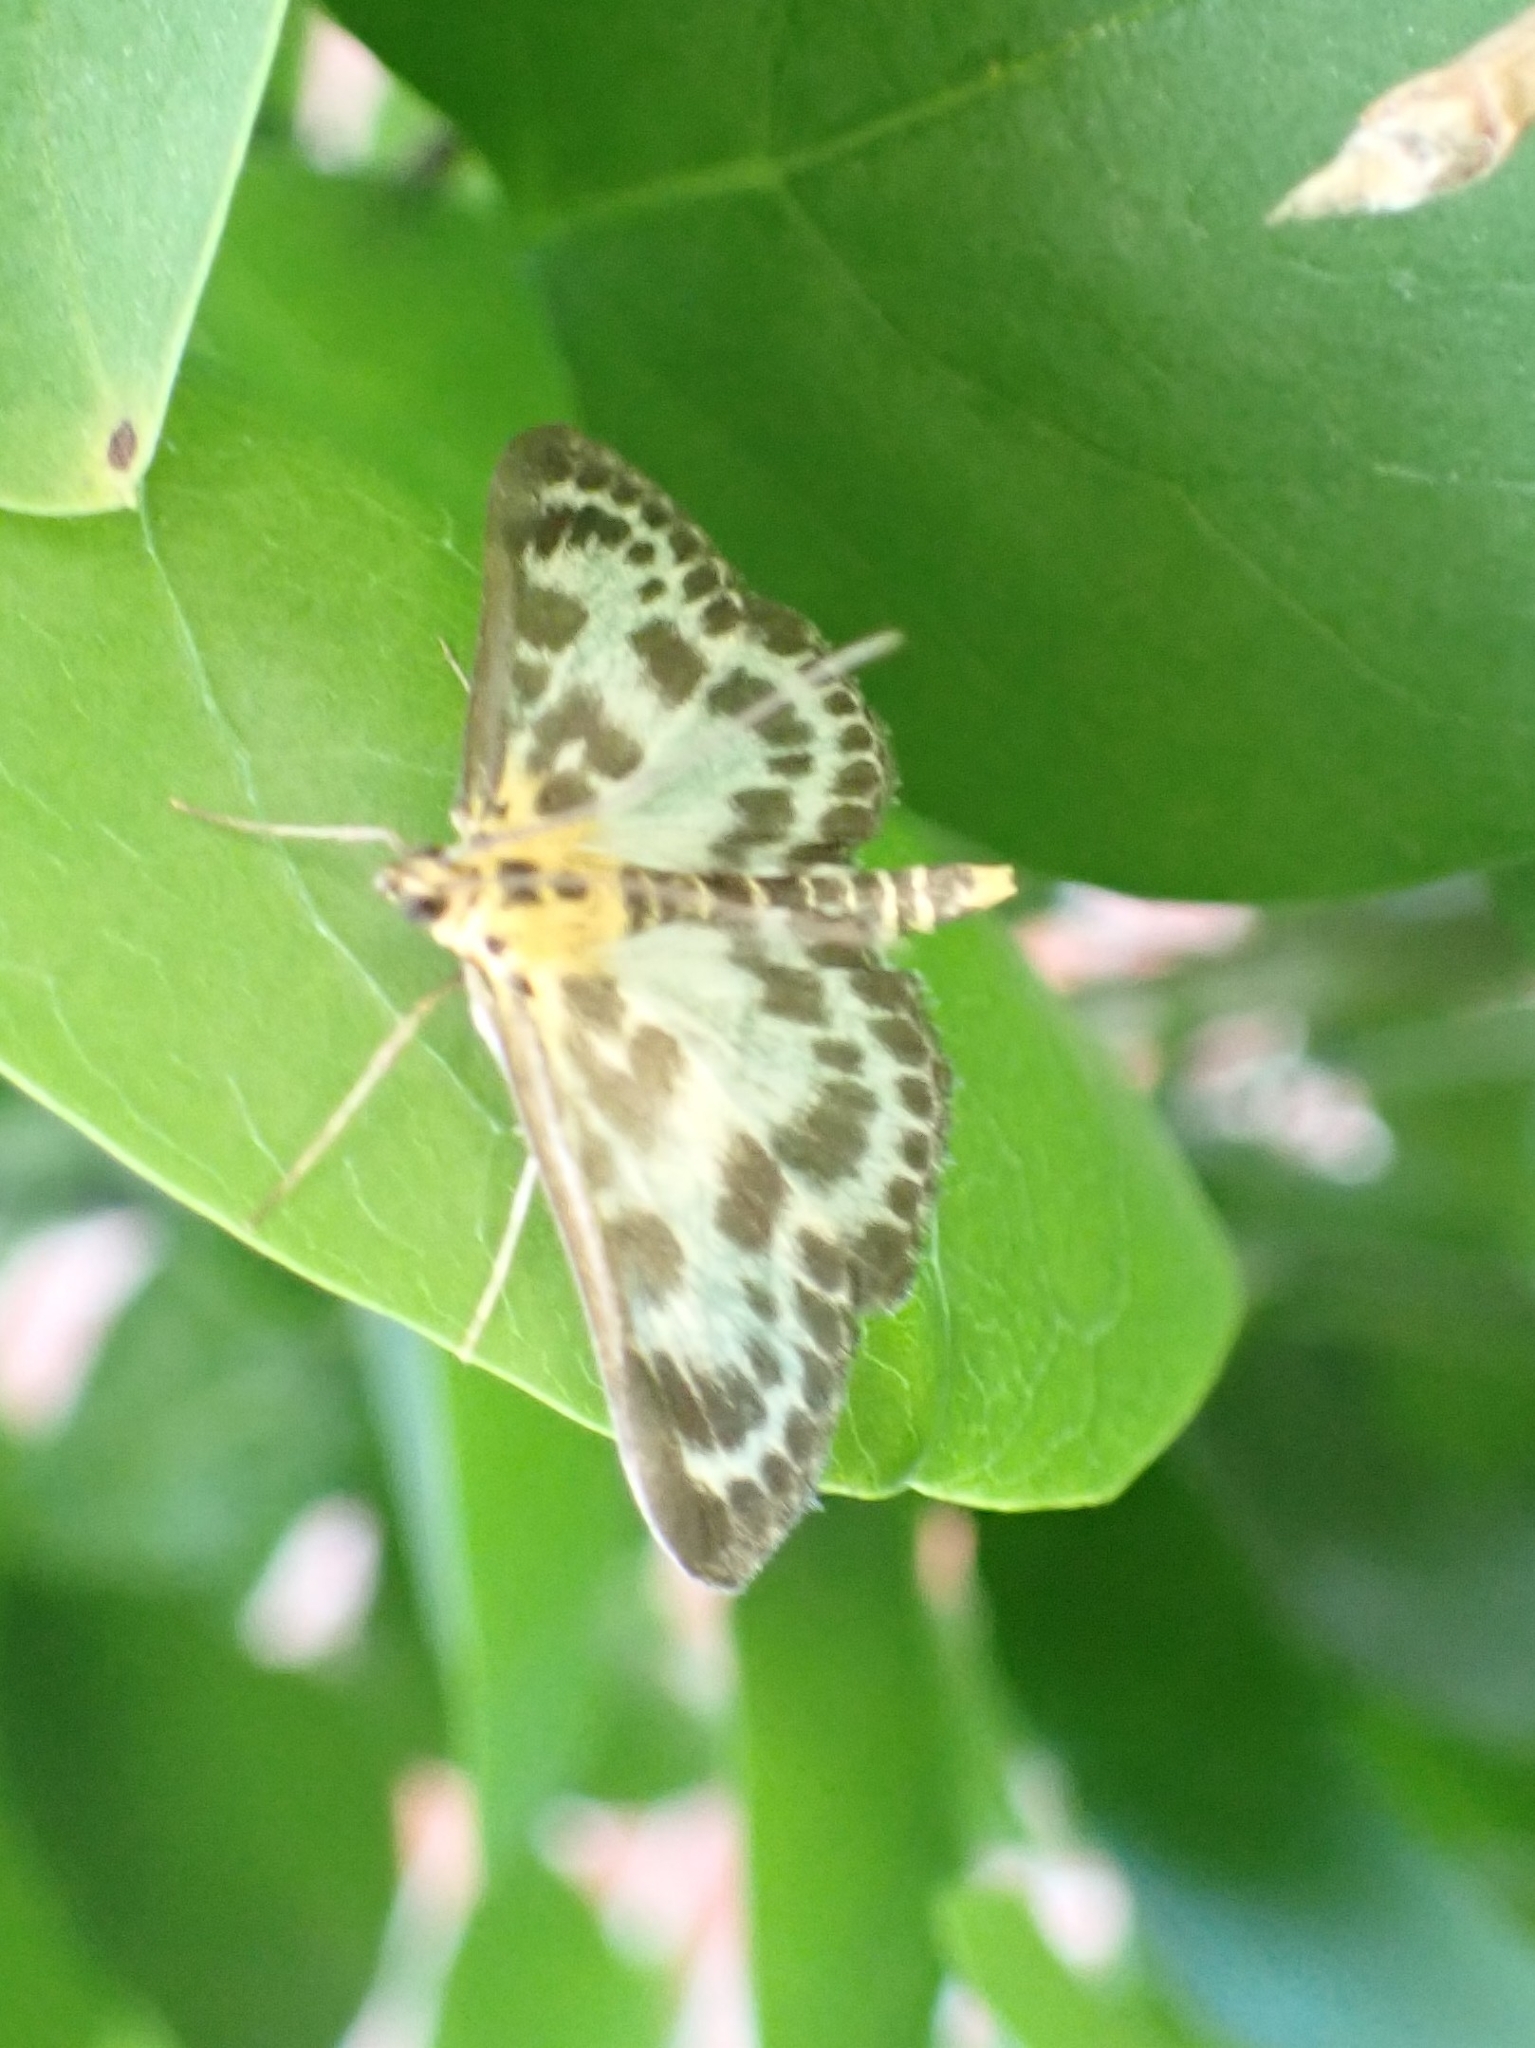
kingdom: Animalia
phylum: Arthropoda
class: Insecta
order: Lepidoptera
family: Crambidae
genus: Anania
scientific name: Anania hortulata
